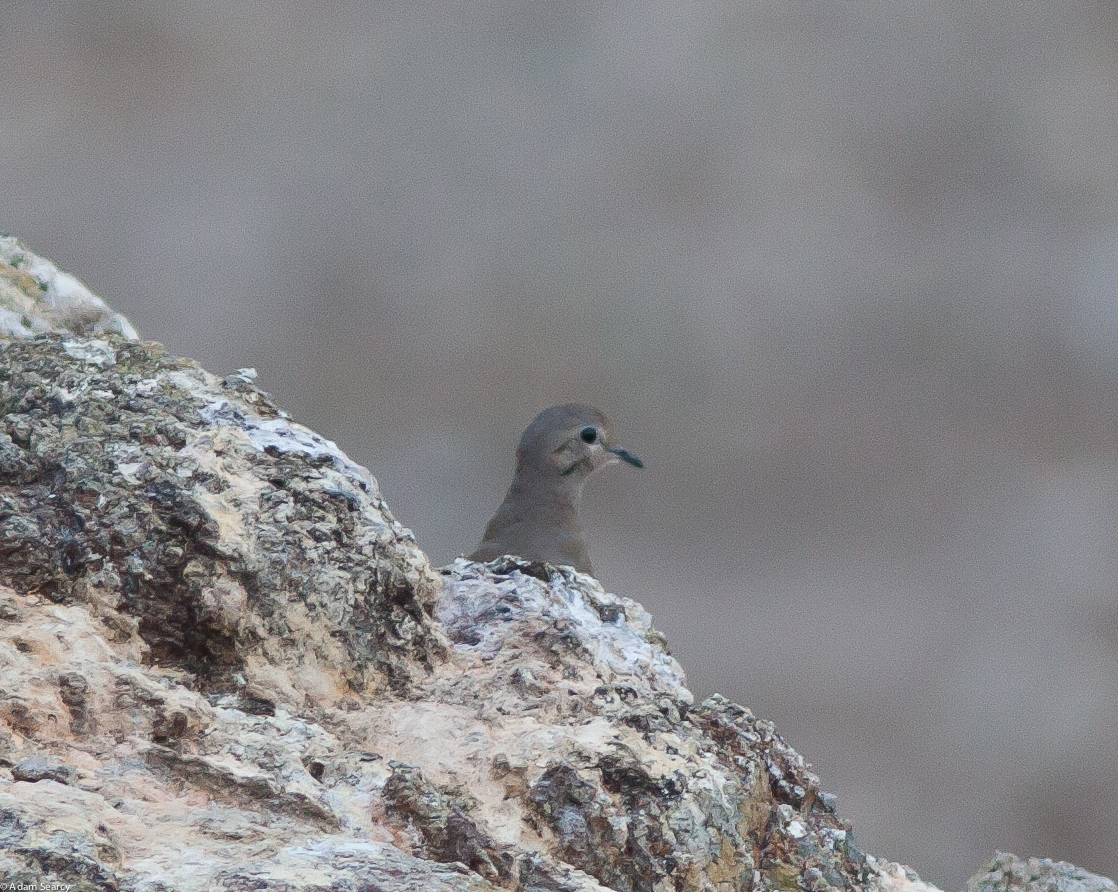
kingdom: Animalia
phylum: Chordata
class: Aves
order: Columbiformes
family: Columbidae
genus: Zenaida
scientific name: Zenaida macroura
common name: Mourning dove
